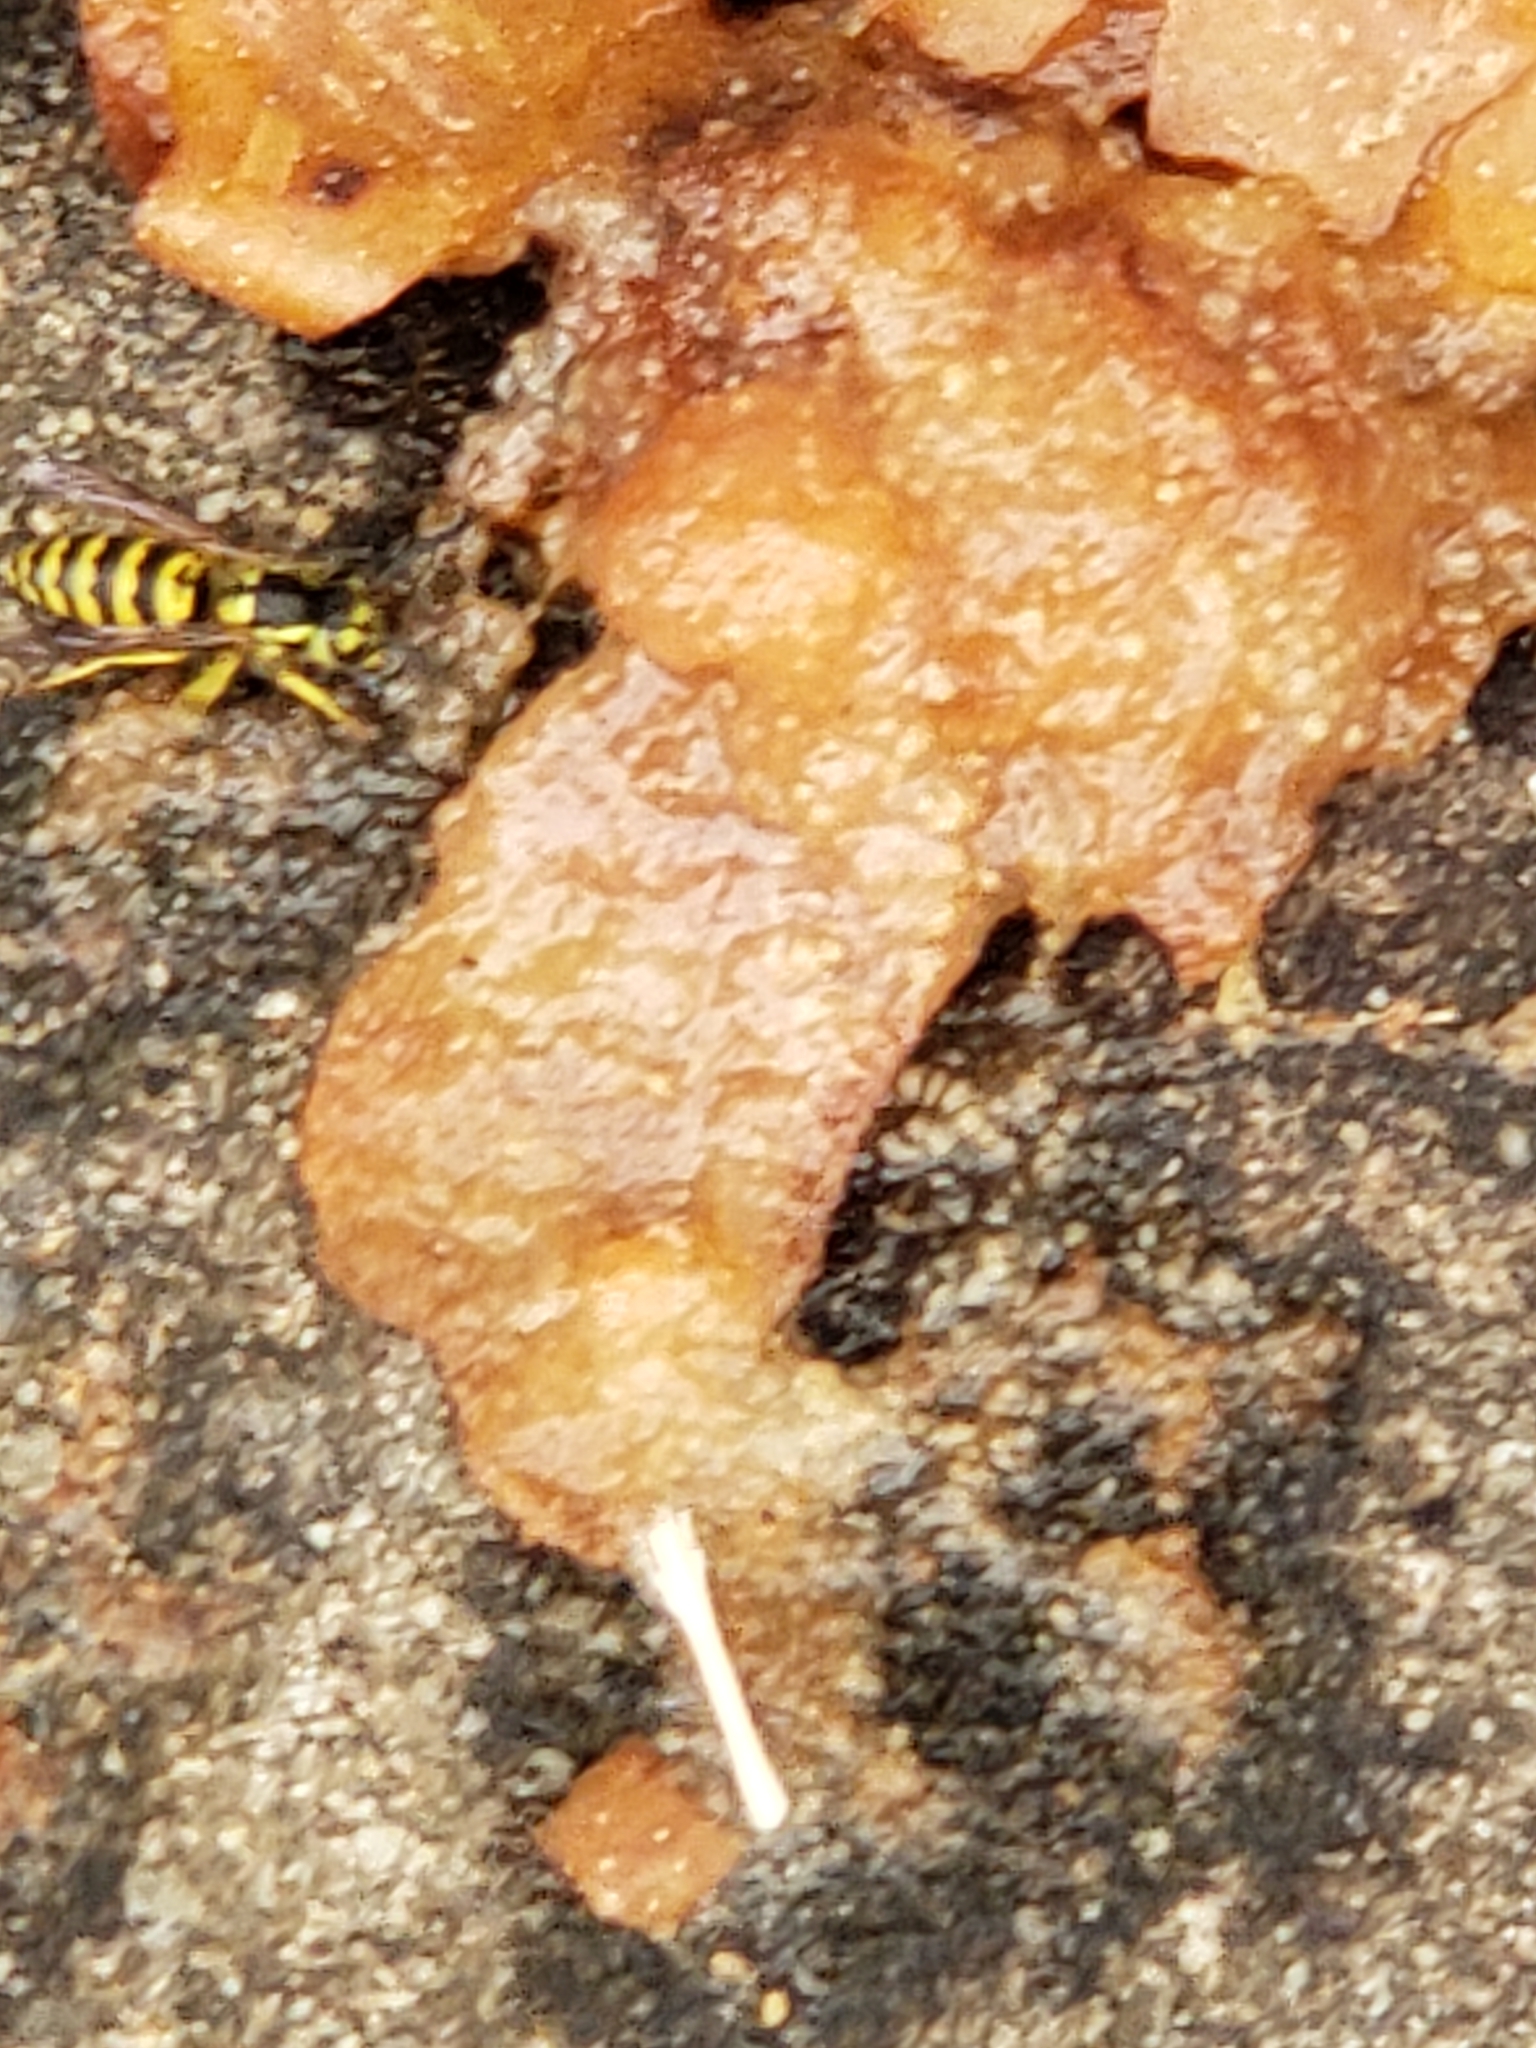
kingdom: Animalia
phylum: Arthropoda
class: Insecta
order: Hymenoptera
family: Vespidae
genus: Vespula
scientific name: Vespula maculifrons
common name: Eastern yellowjacket
